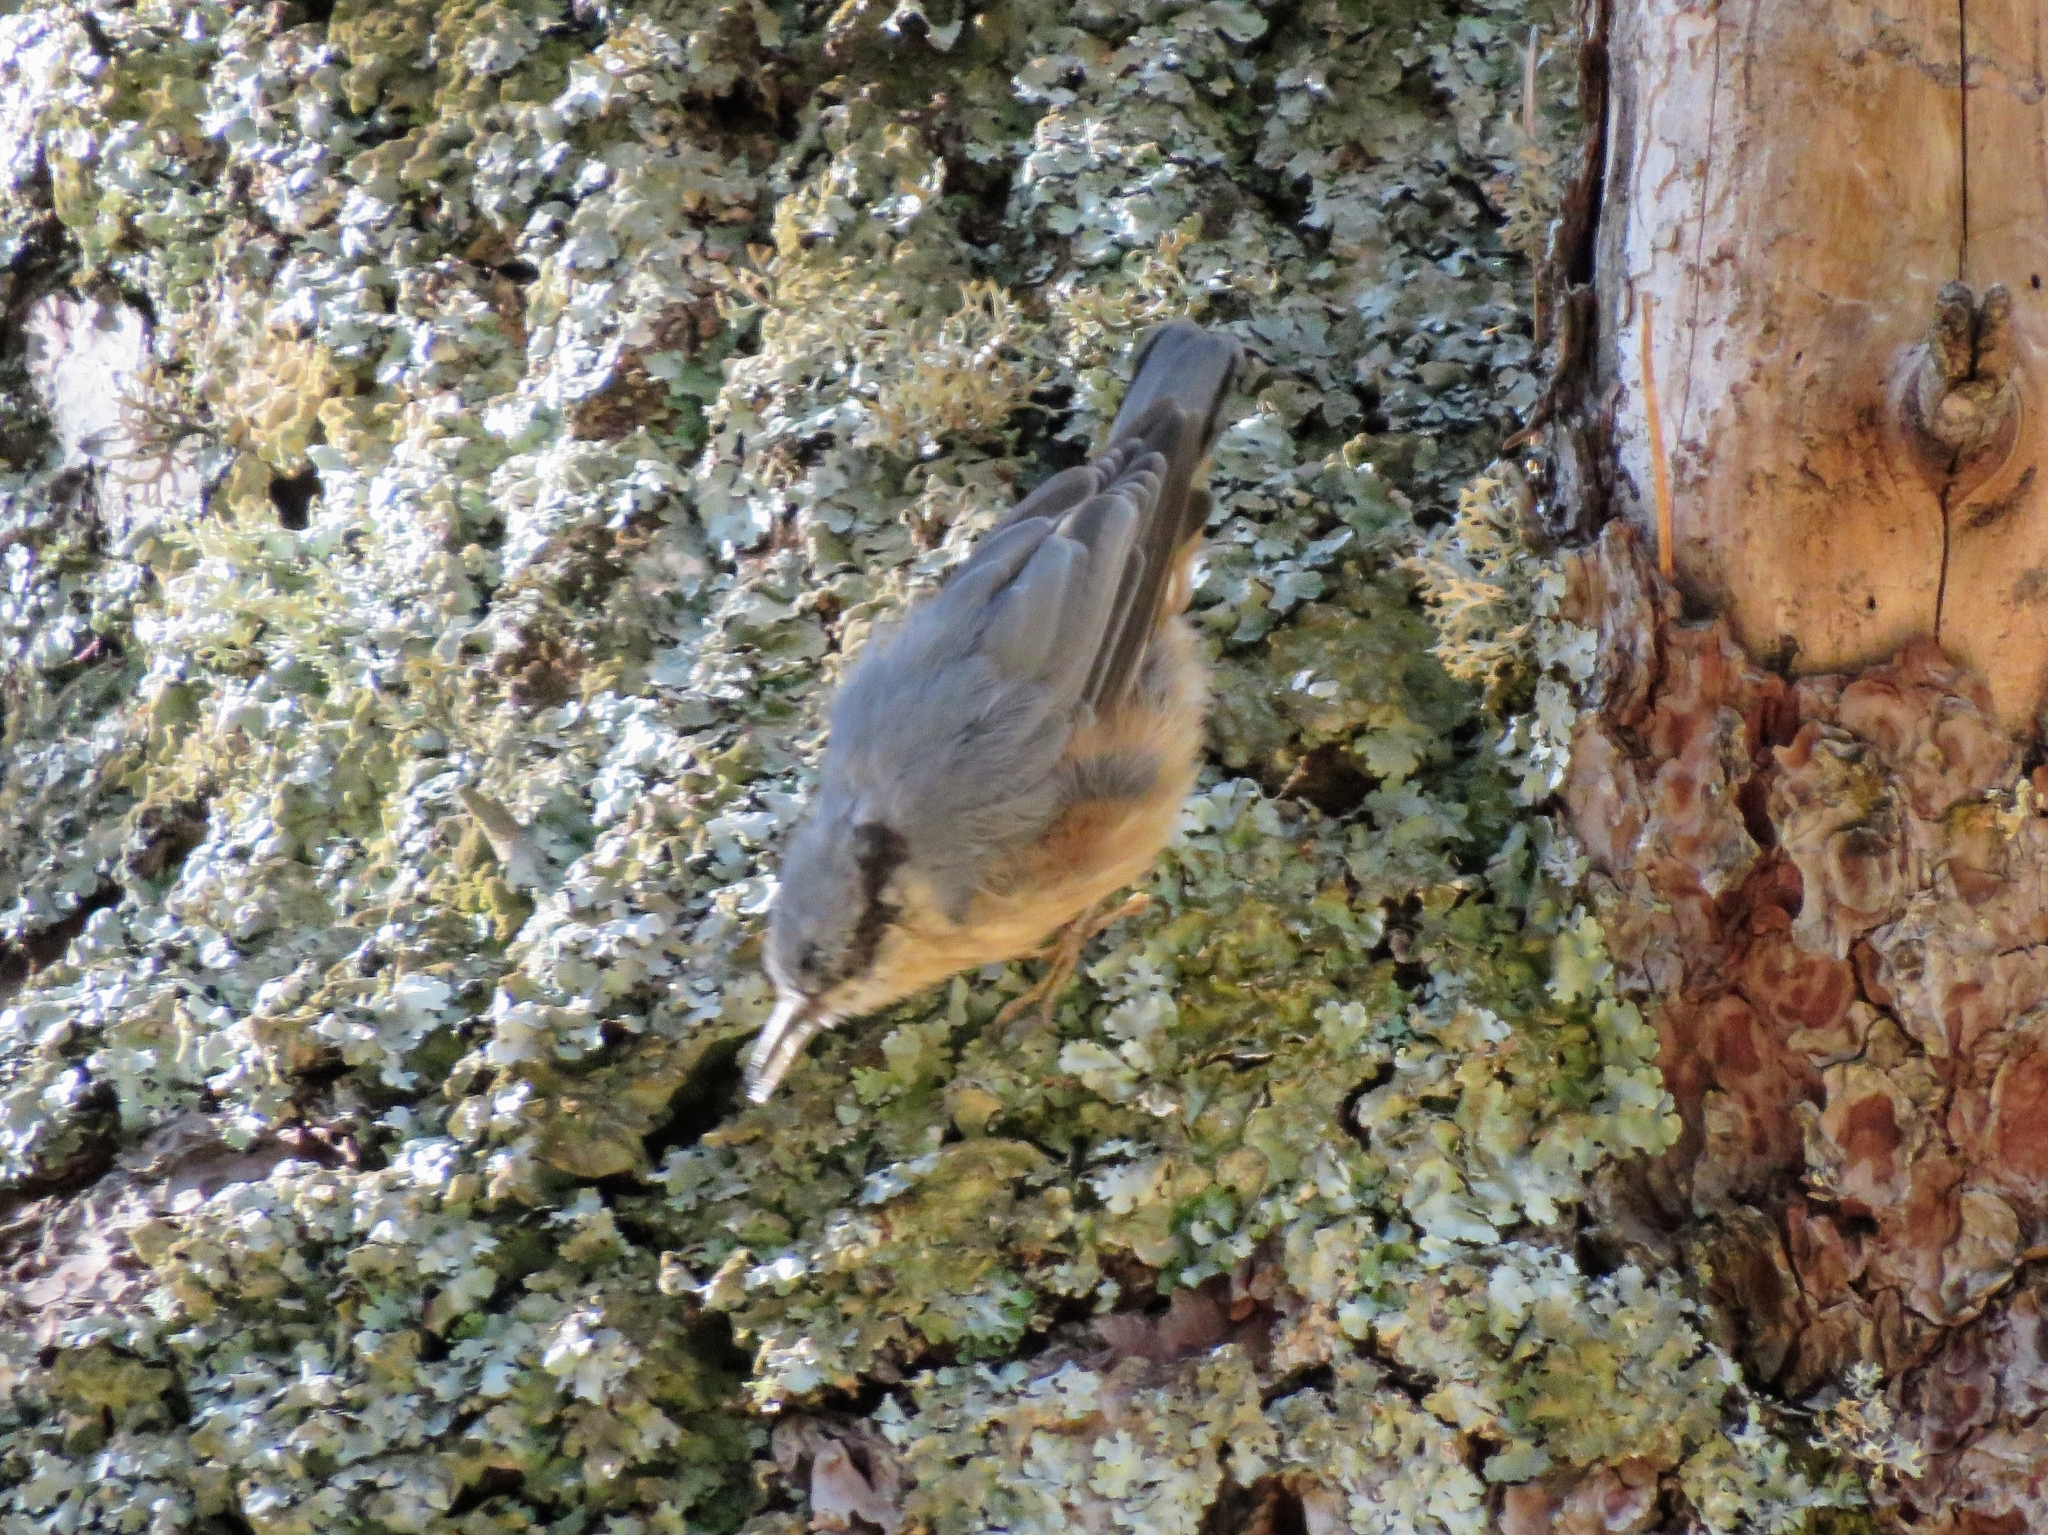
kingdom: Animalia
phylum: Chordata
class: Aves
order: Passeriformes
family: Sittidae
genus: Sitta
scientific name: Sitta europaea
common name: Eurasian nuthatch
